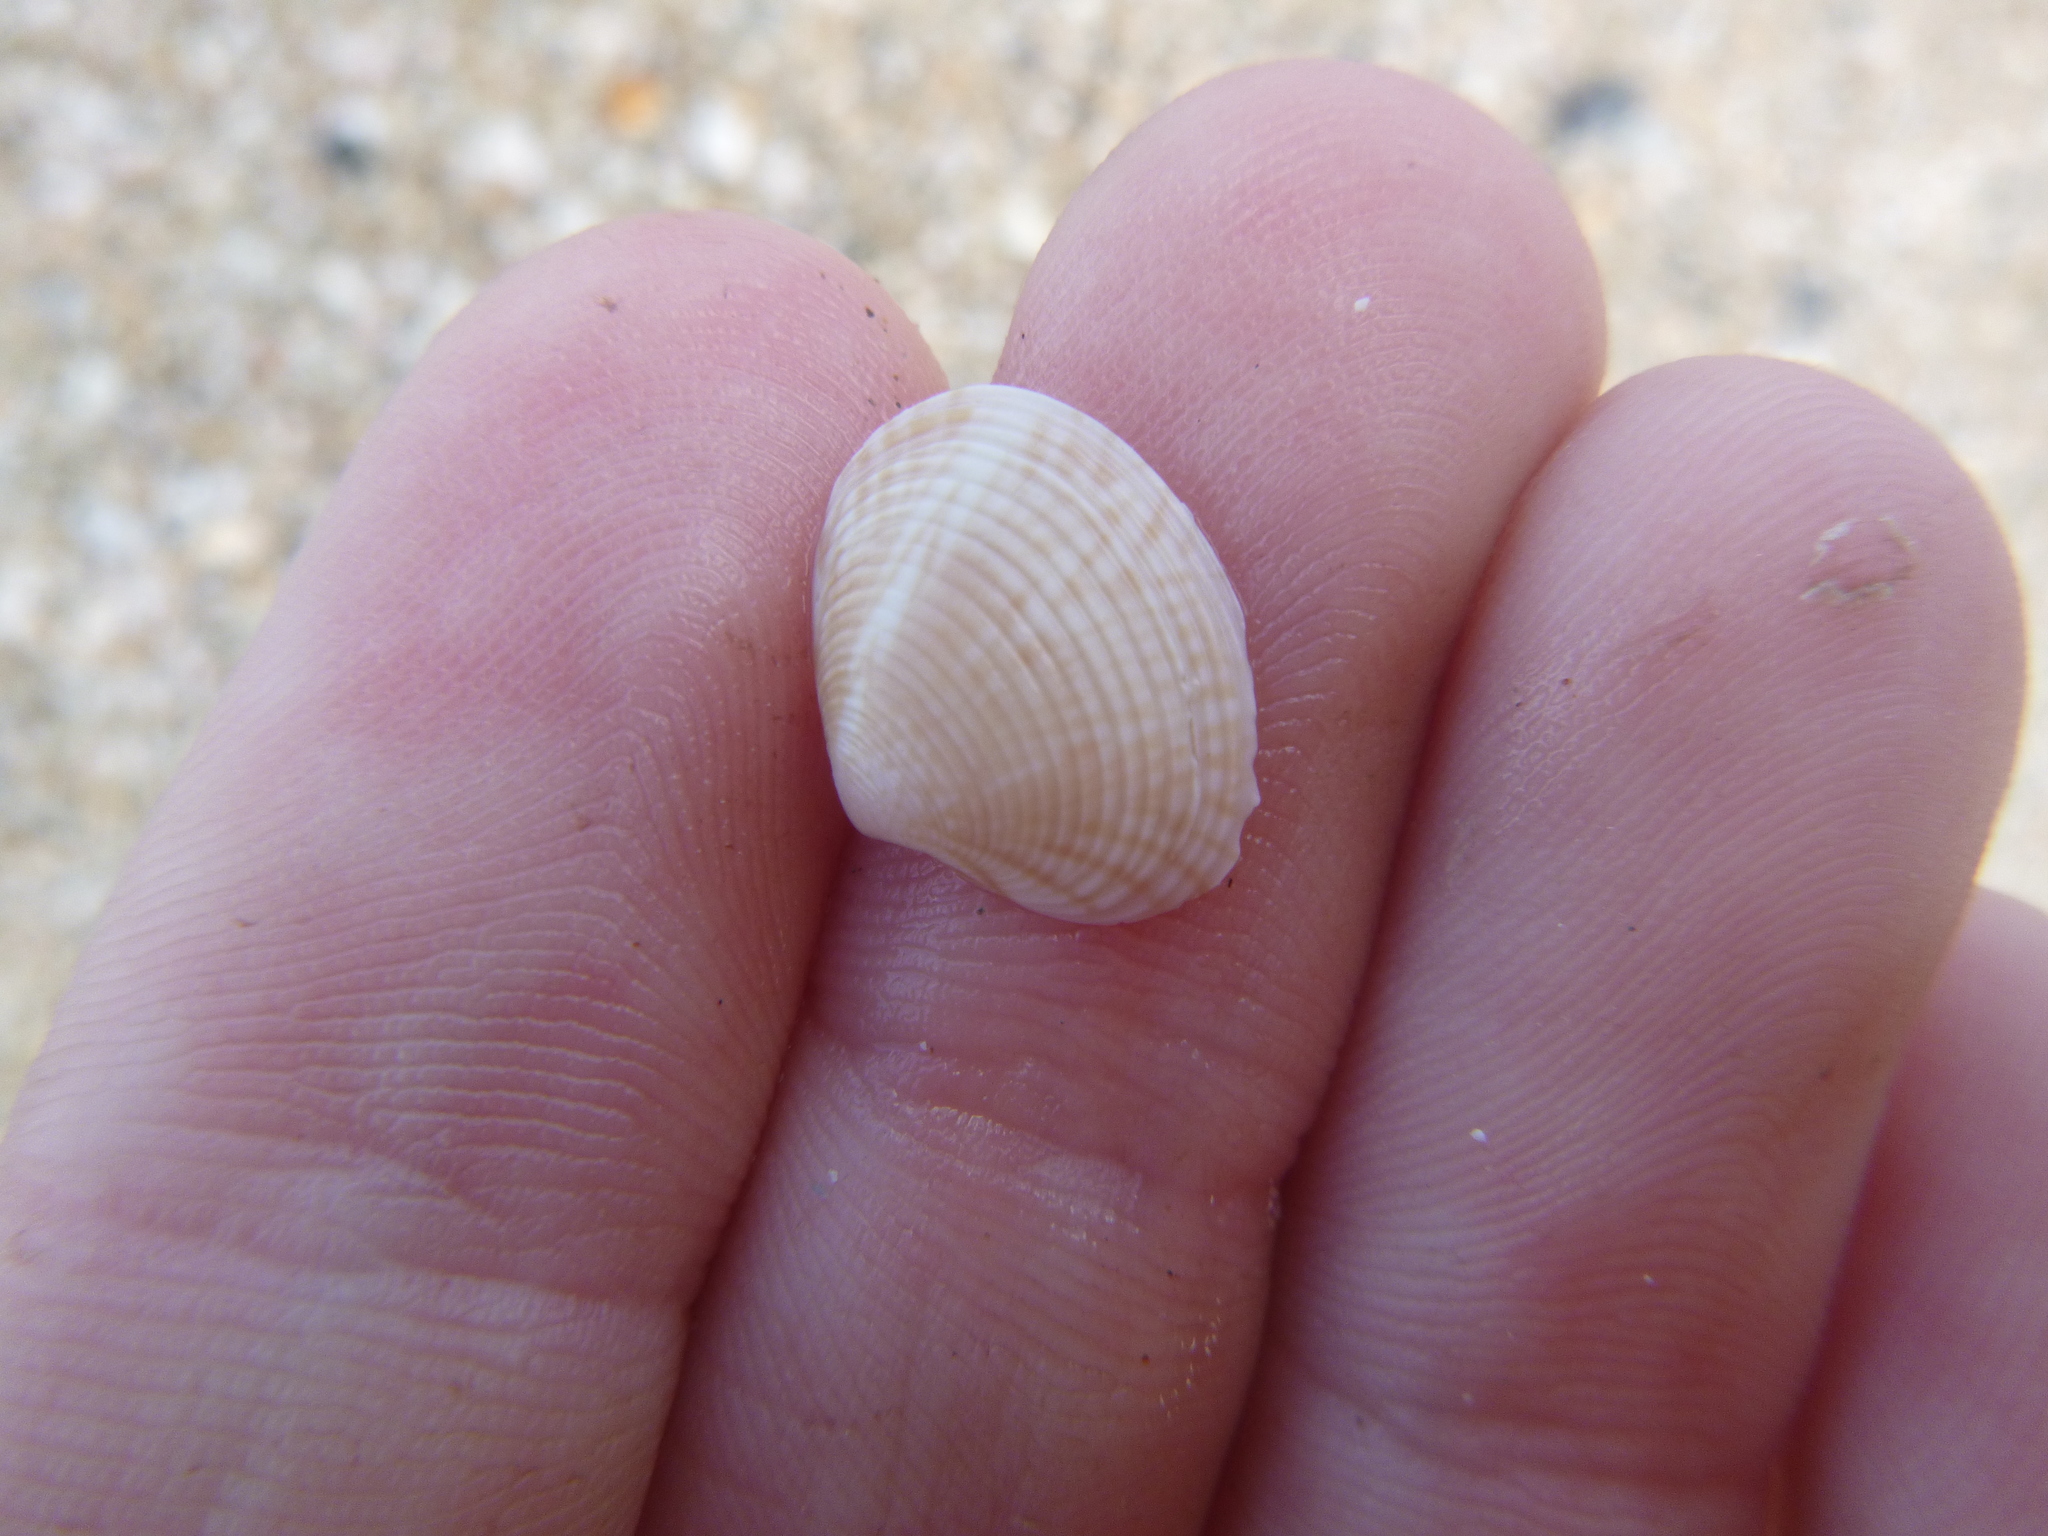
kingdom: Animalia
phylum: Mollusca
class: Bivalvia
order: Venerida
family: Veneridae
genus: Tawera
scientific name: Tawera spissa
